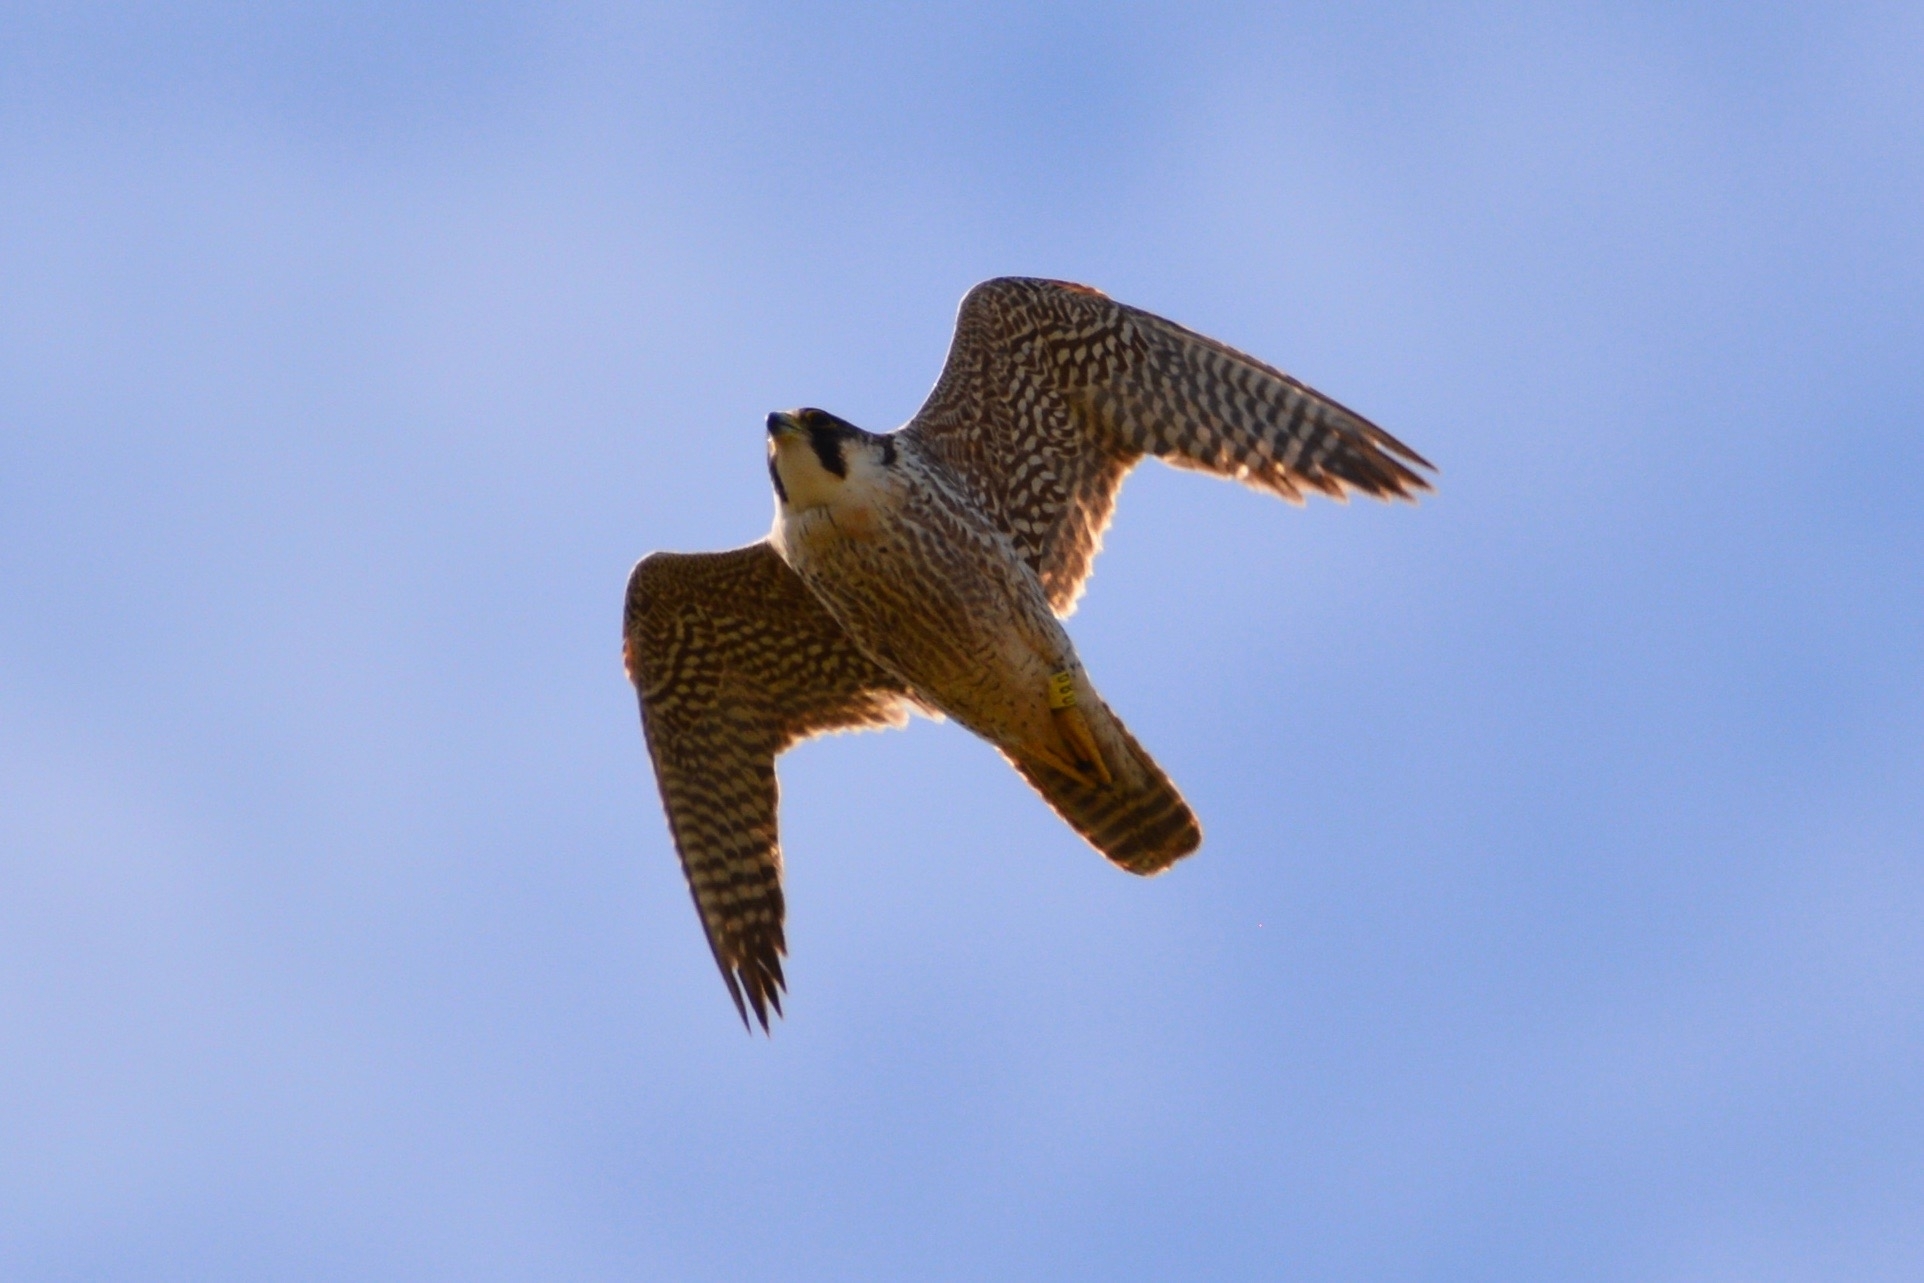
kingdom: Animalia
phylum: Chordata
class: Aves
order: Falconiformes
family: Falconidae
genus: Falco
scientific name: Falco peregrinus
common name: Peregrine falcon
